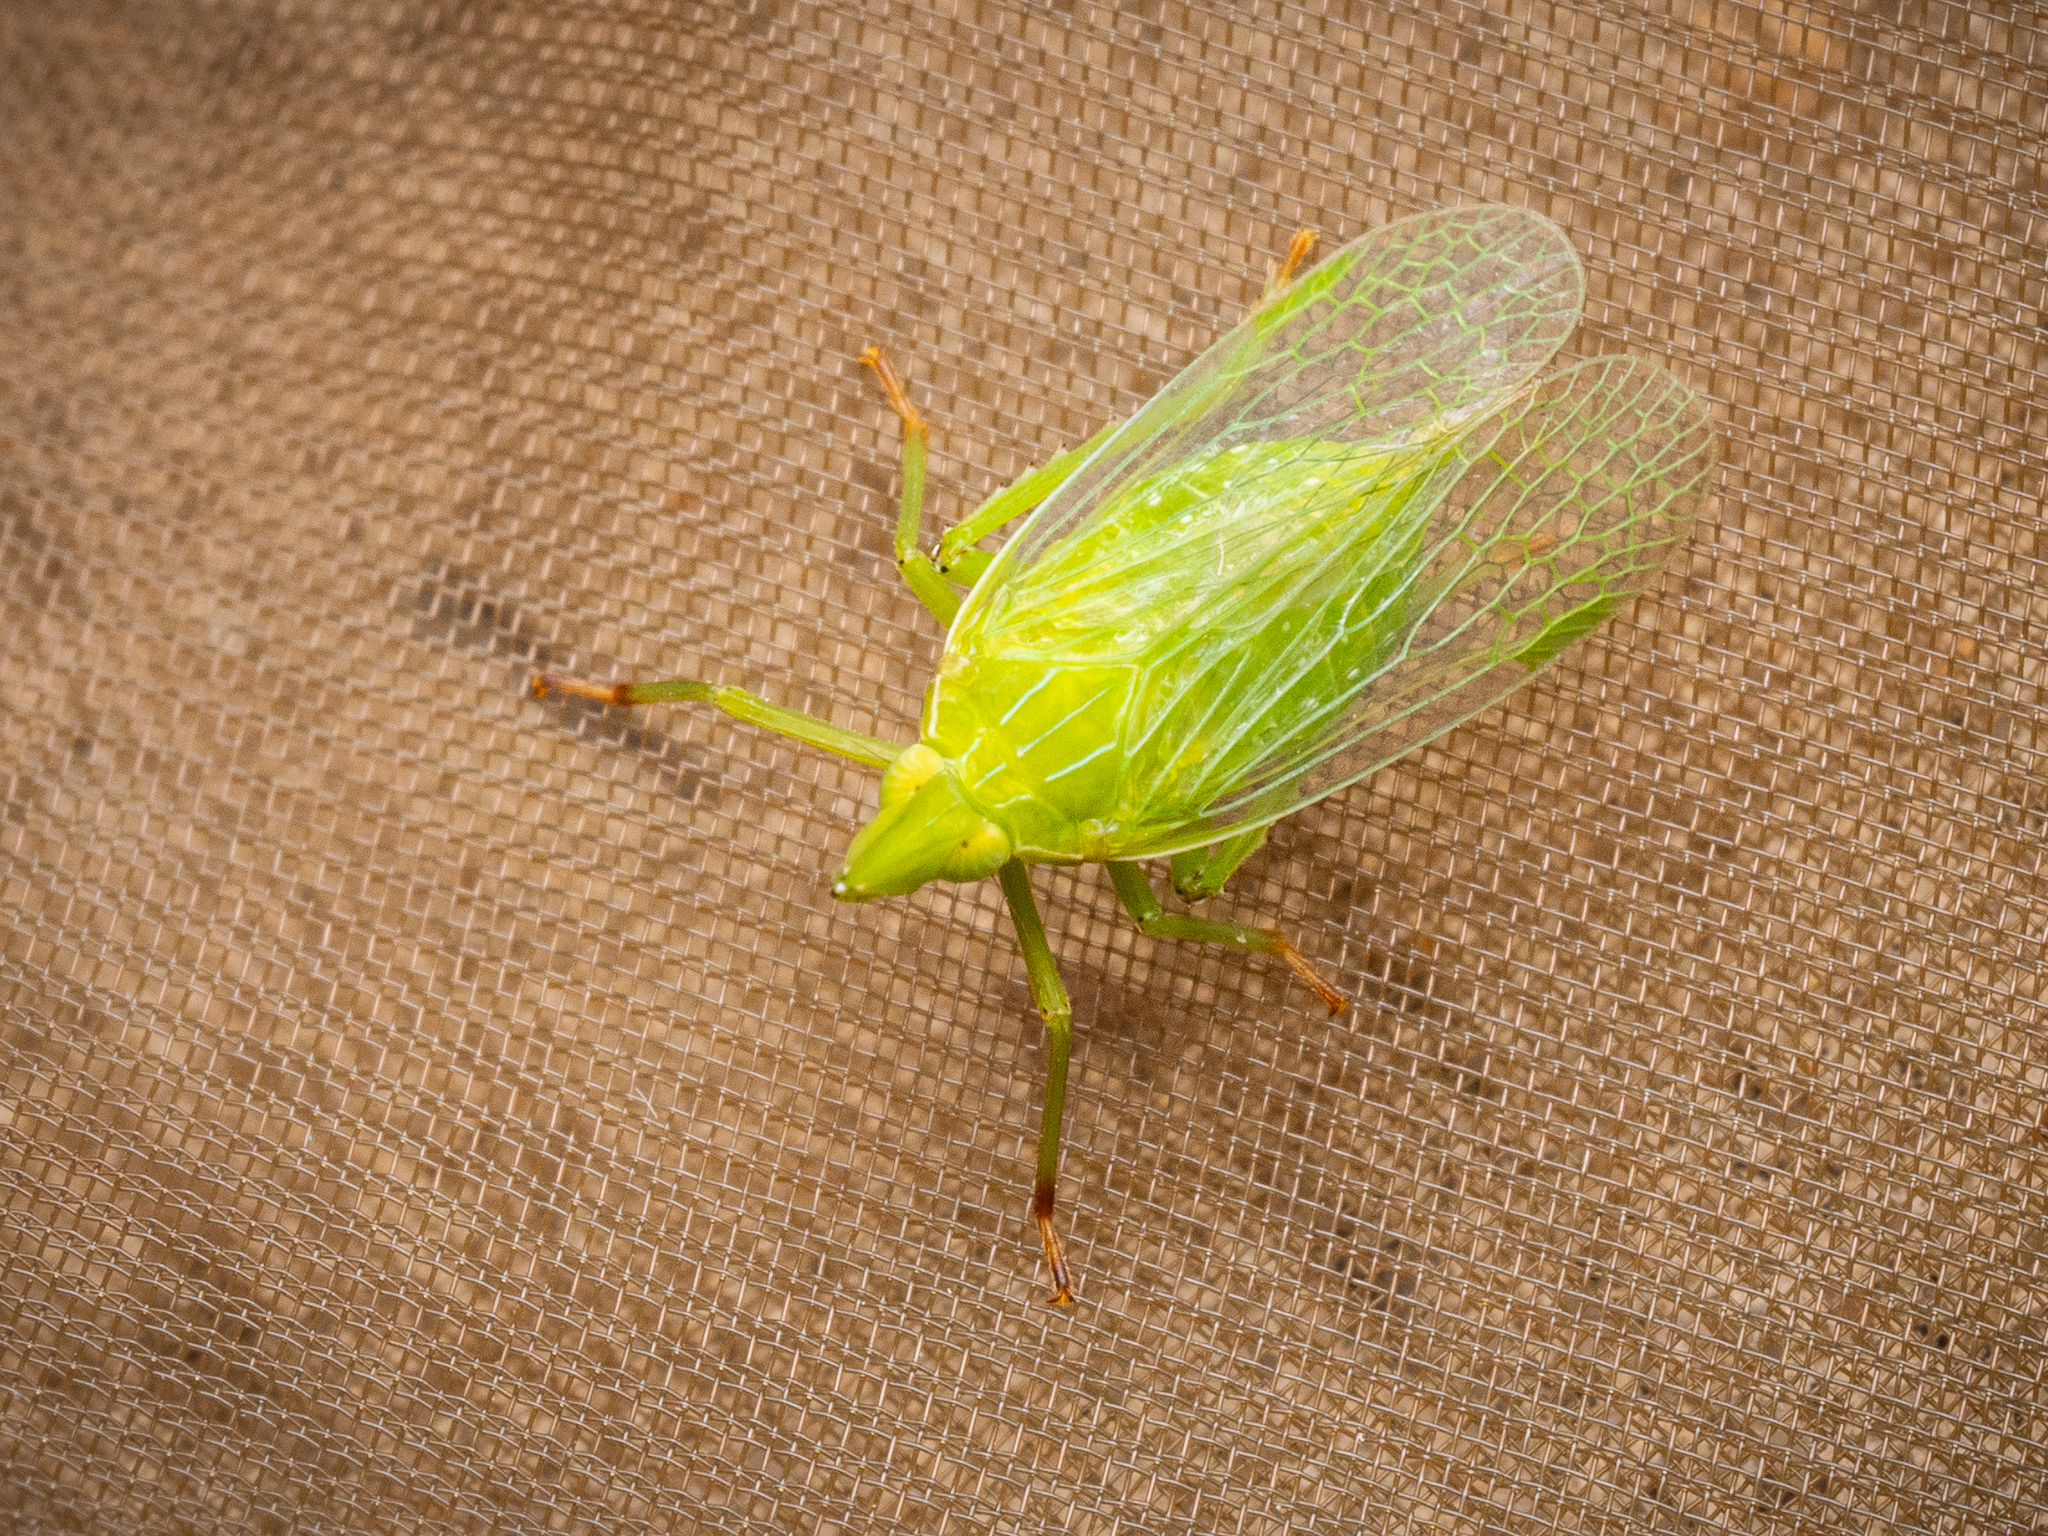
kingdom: Animalia
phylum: Arthropoda
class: Insecta
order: Hemiptera
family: Dictyopharidae
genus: Dictyophara
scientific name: Dictyophara europaea
